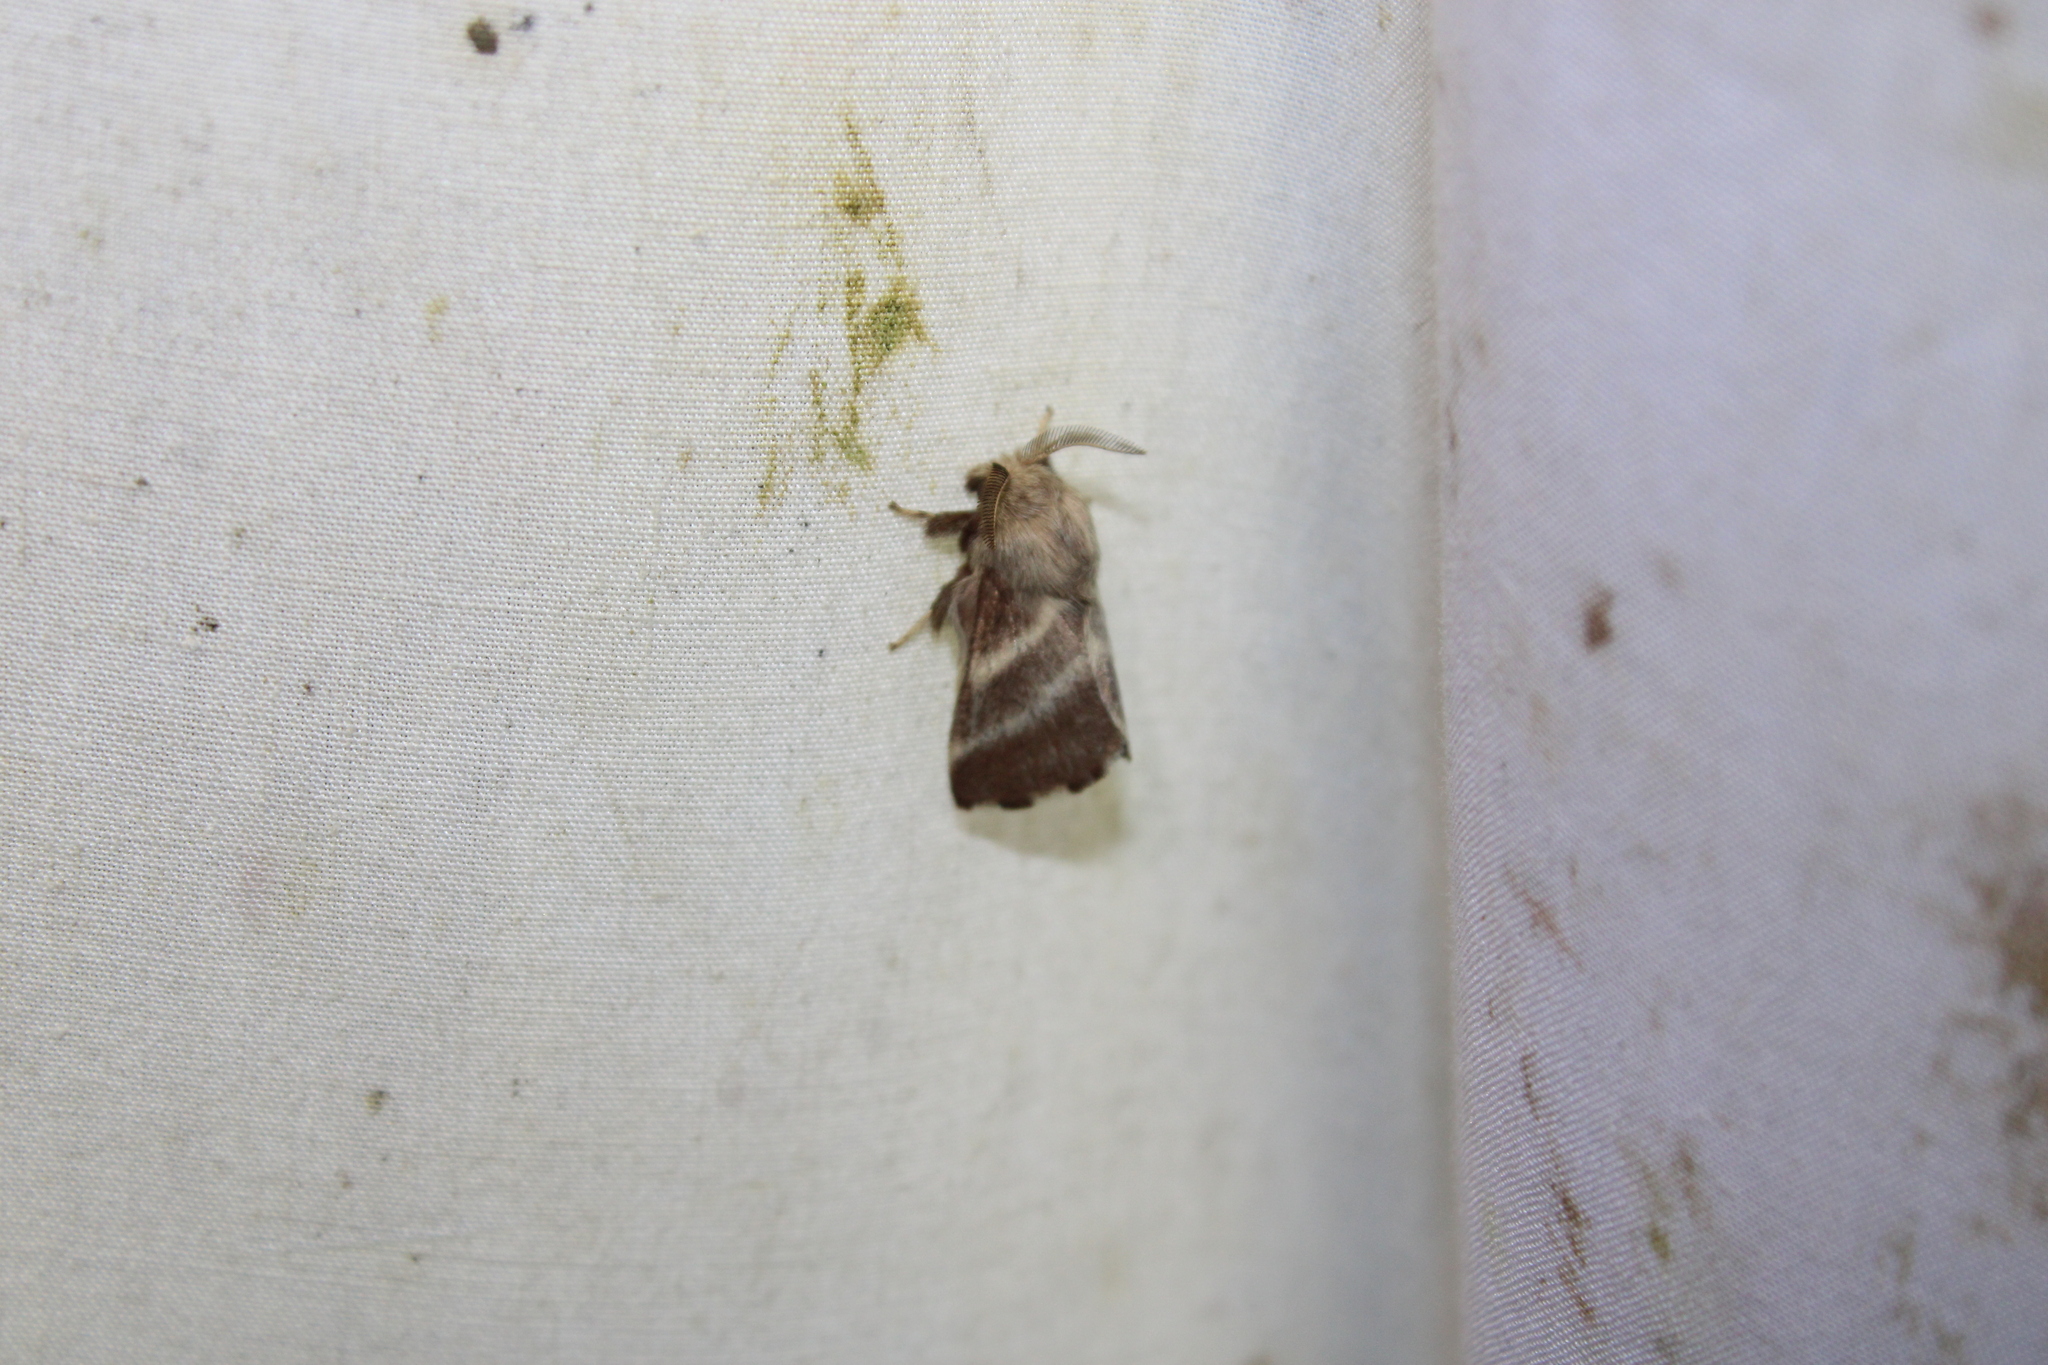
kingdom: Animalia
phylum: Arthropoda
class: Insecta
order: Lepidoptera
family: Lasiocampidae
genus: Malacosoma
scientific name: Malacosoma americana
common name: Eastern tent caterpillar moth
